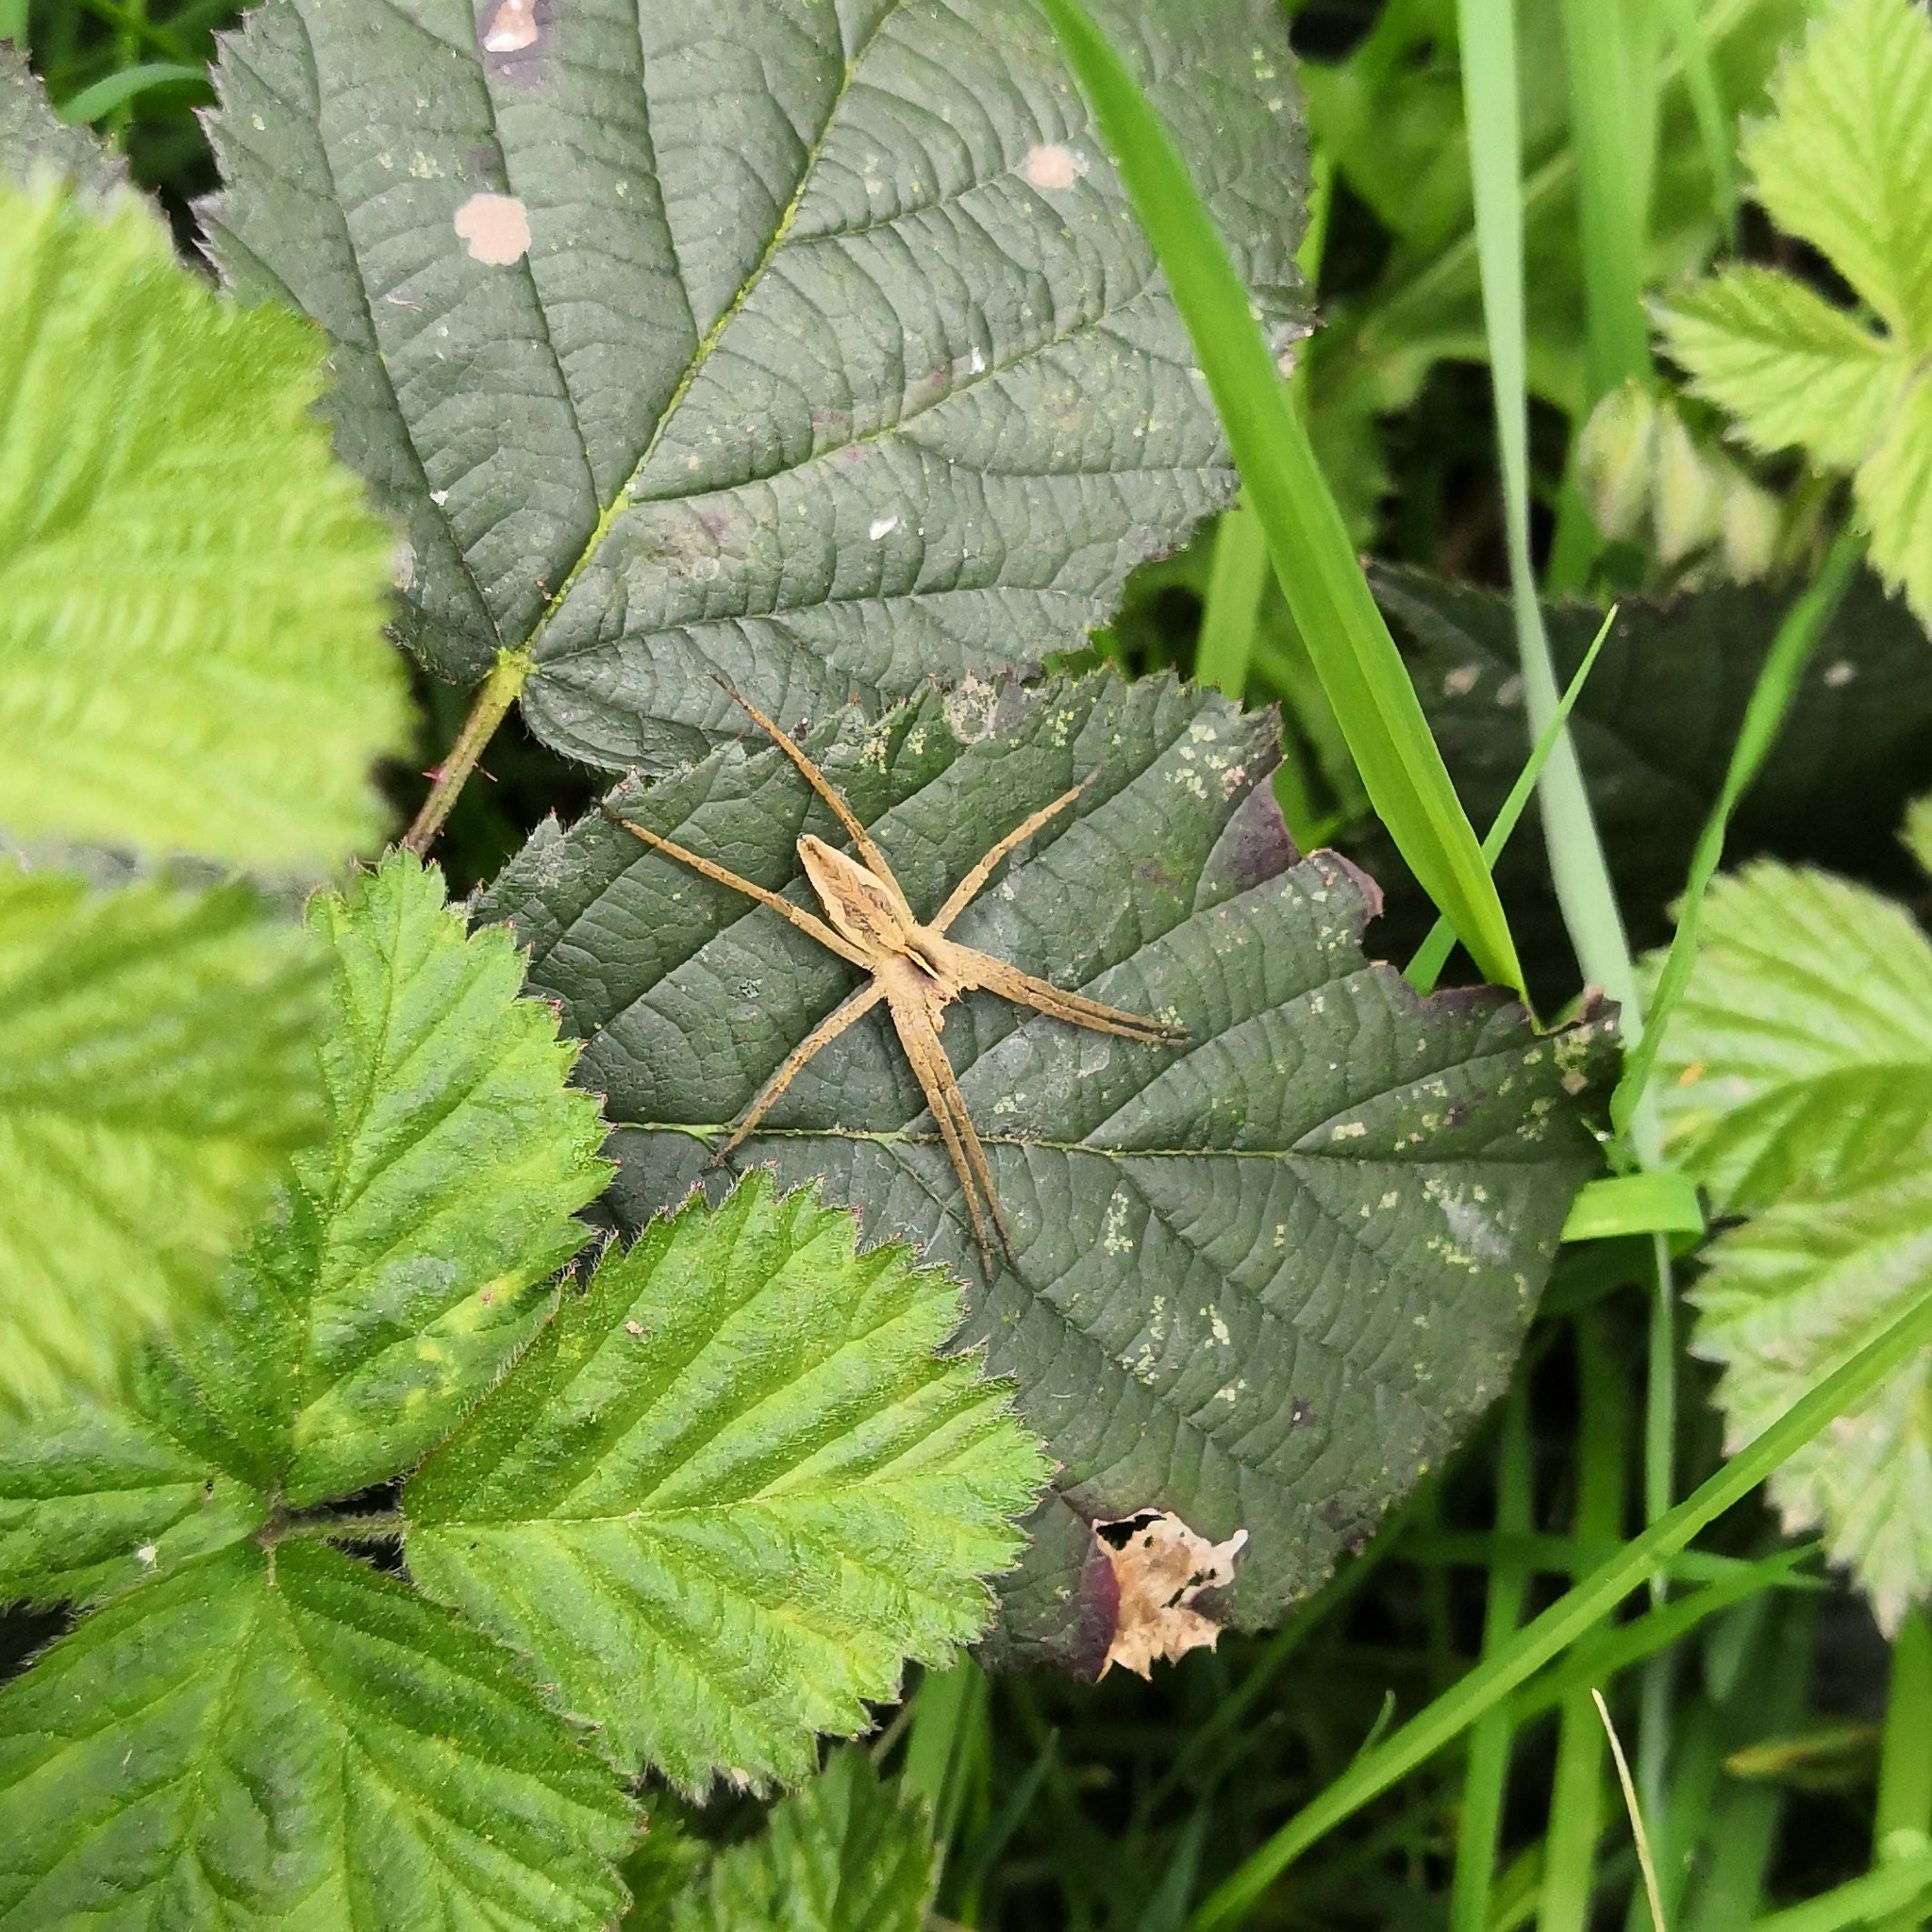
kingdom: Animalia
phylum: Arthropoda
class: Arachnida
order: Araneae
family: Pisauridae
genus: Pisaura
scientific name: Pisaura mirabilis
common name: Tent spider
